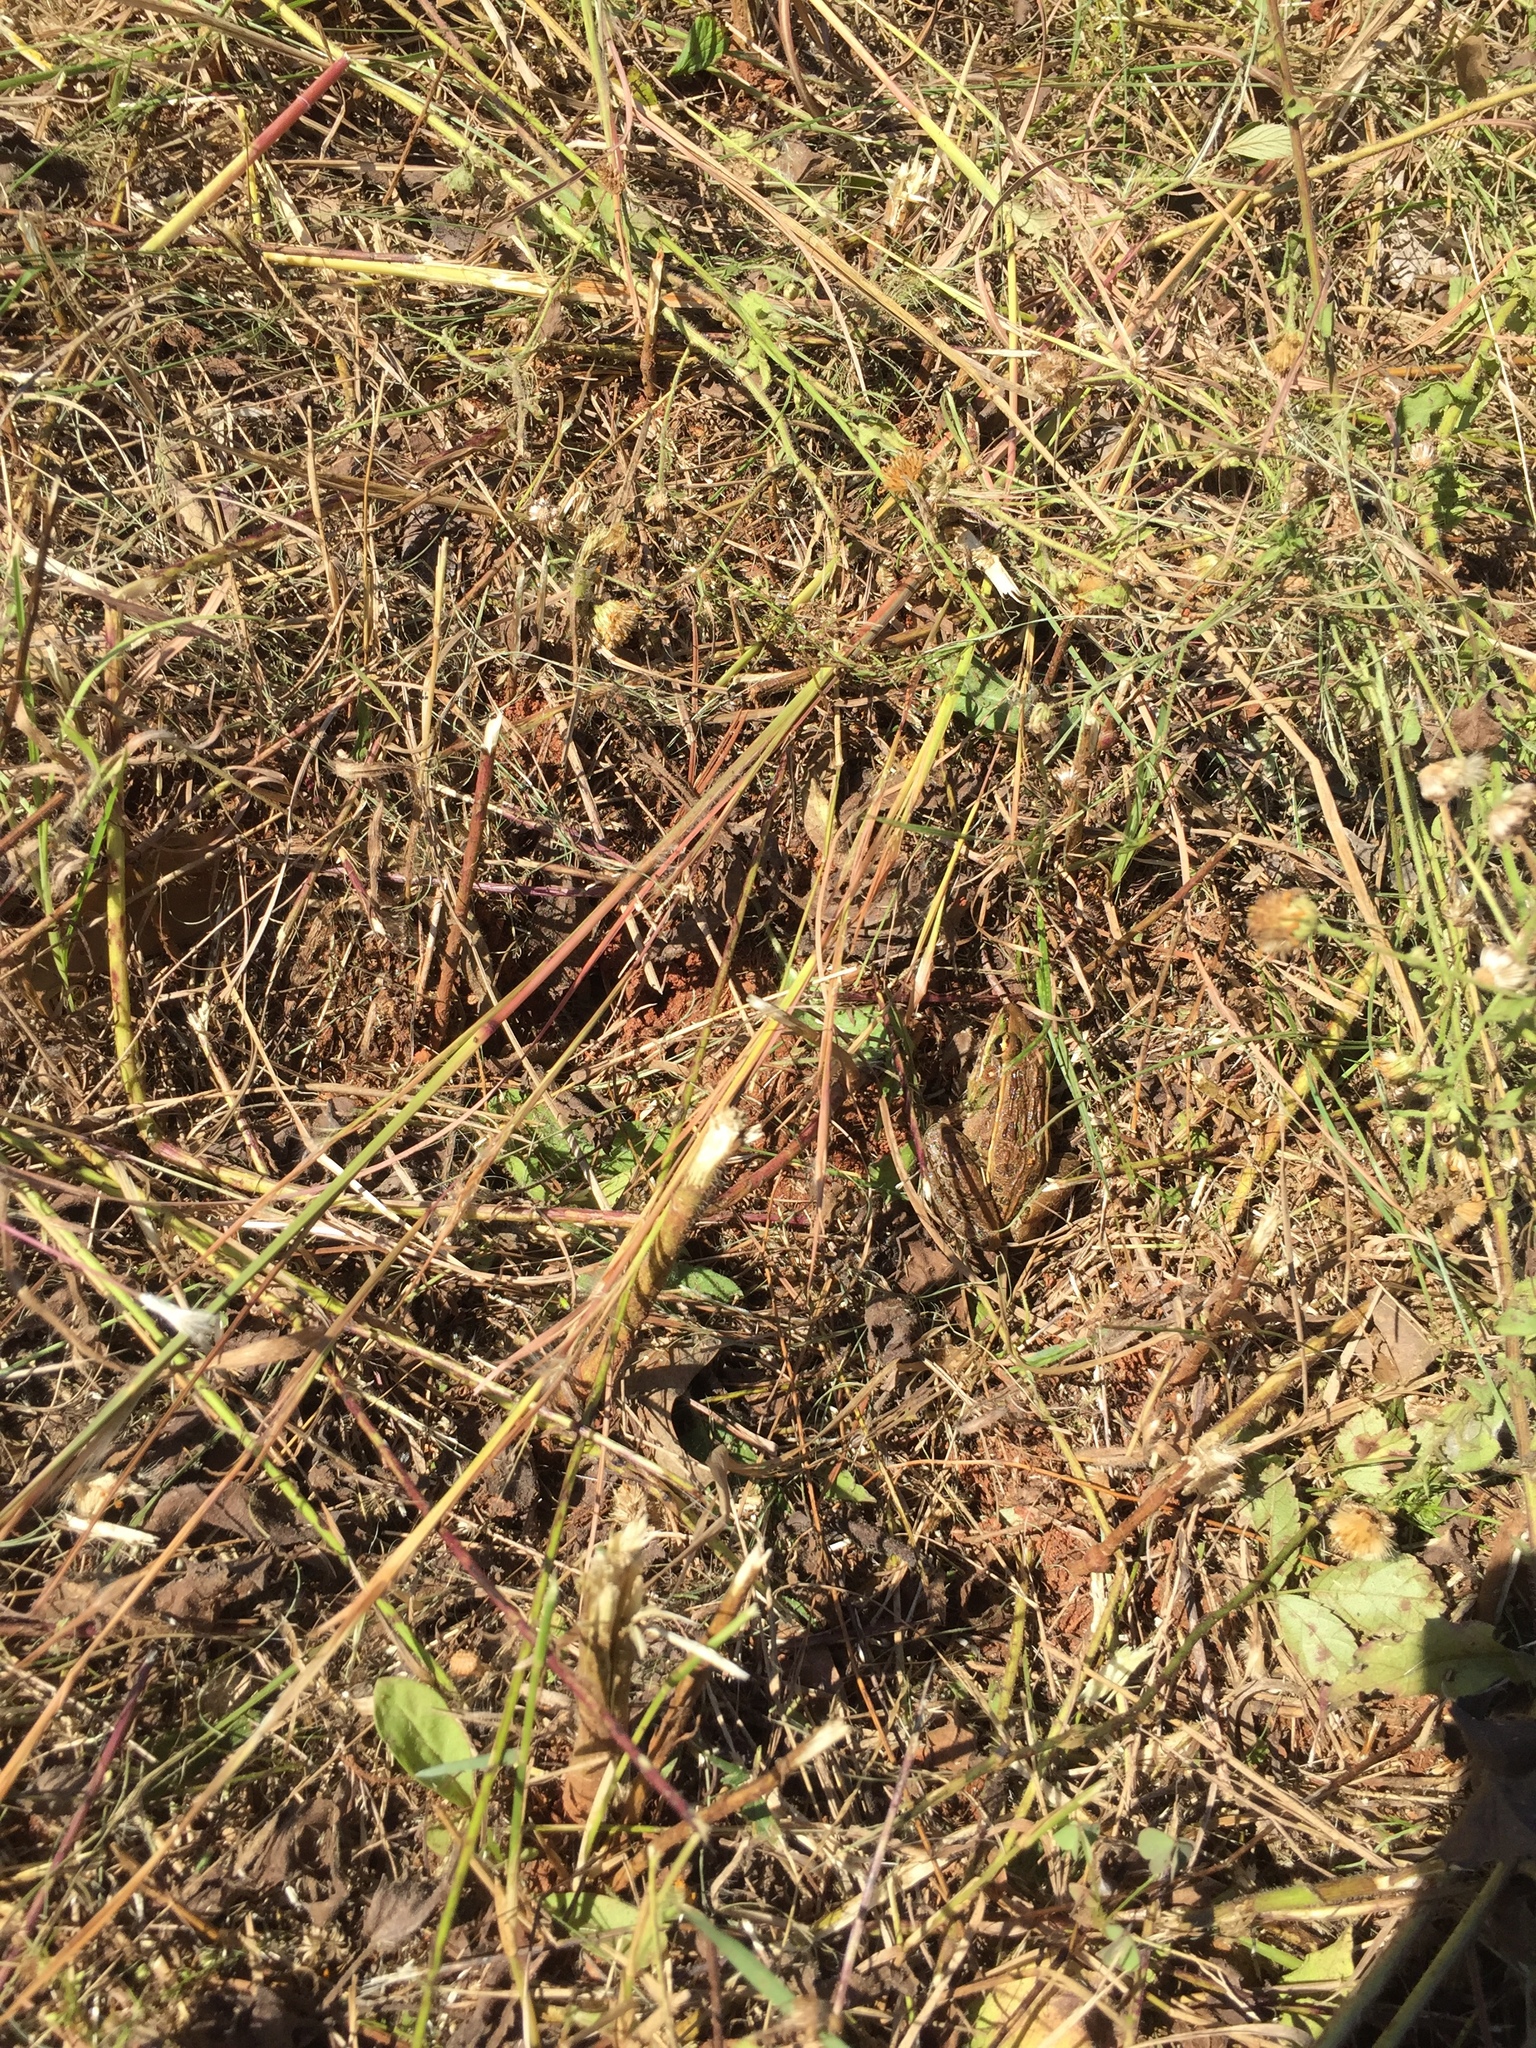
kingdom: Animalia
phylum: Chordata
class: Amphibia
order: Anura
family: Ranidae
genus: Lithobates
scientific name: Lithobates sphenocephalus
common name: Southern leopard frog
